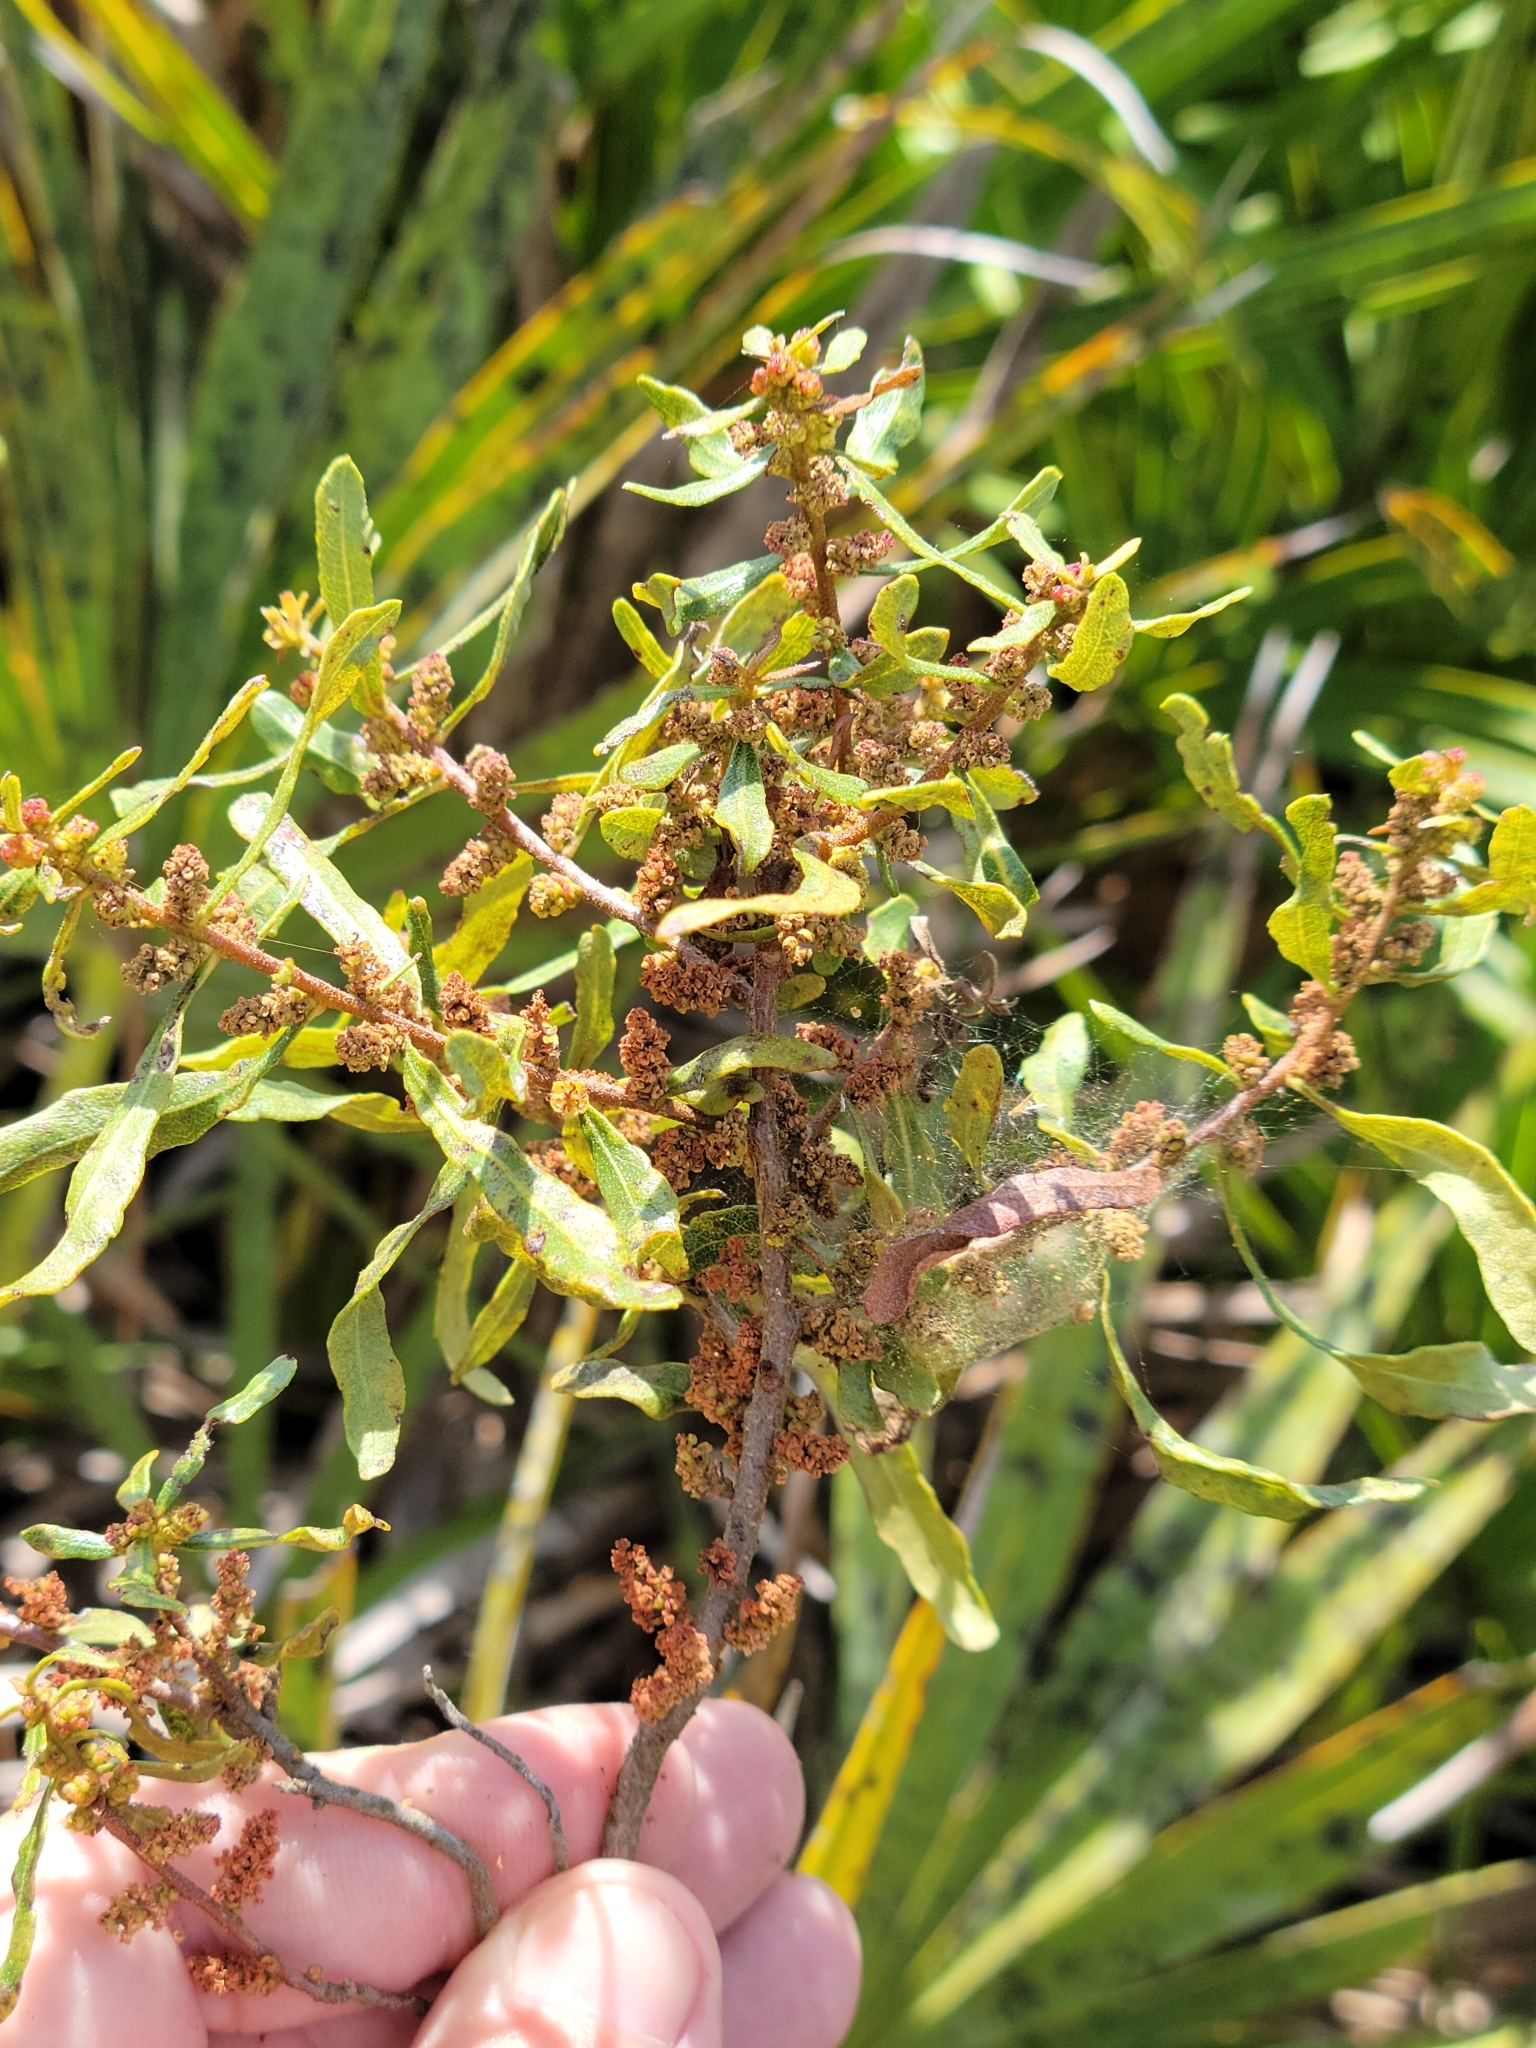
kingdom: Plantae
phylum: Tracheophyta
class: Magnoliopsida
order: Fagales
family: Myricaceae
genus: Morella
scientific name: Morella cerifera
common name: Wax myrtle
